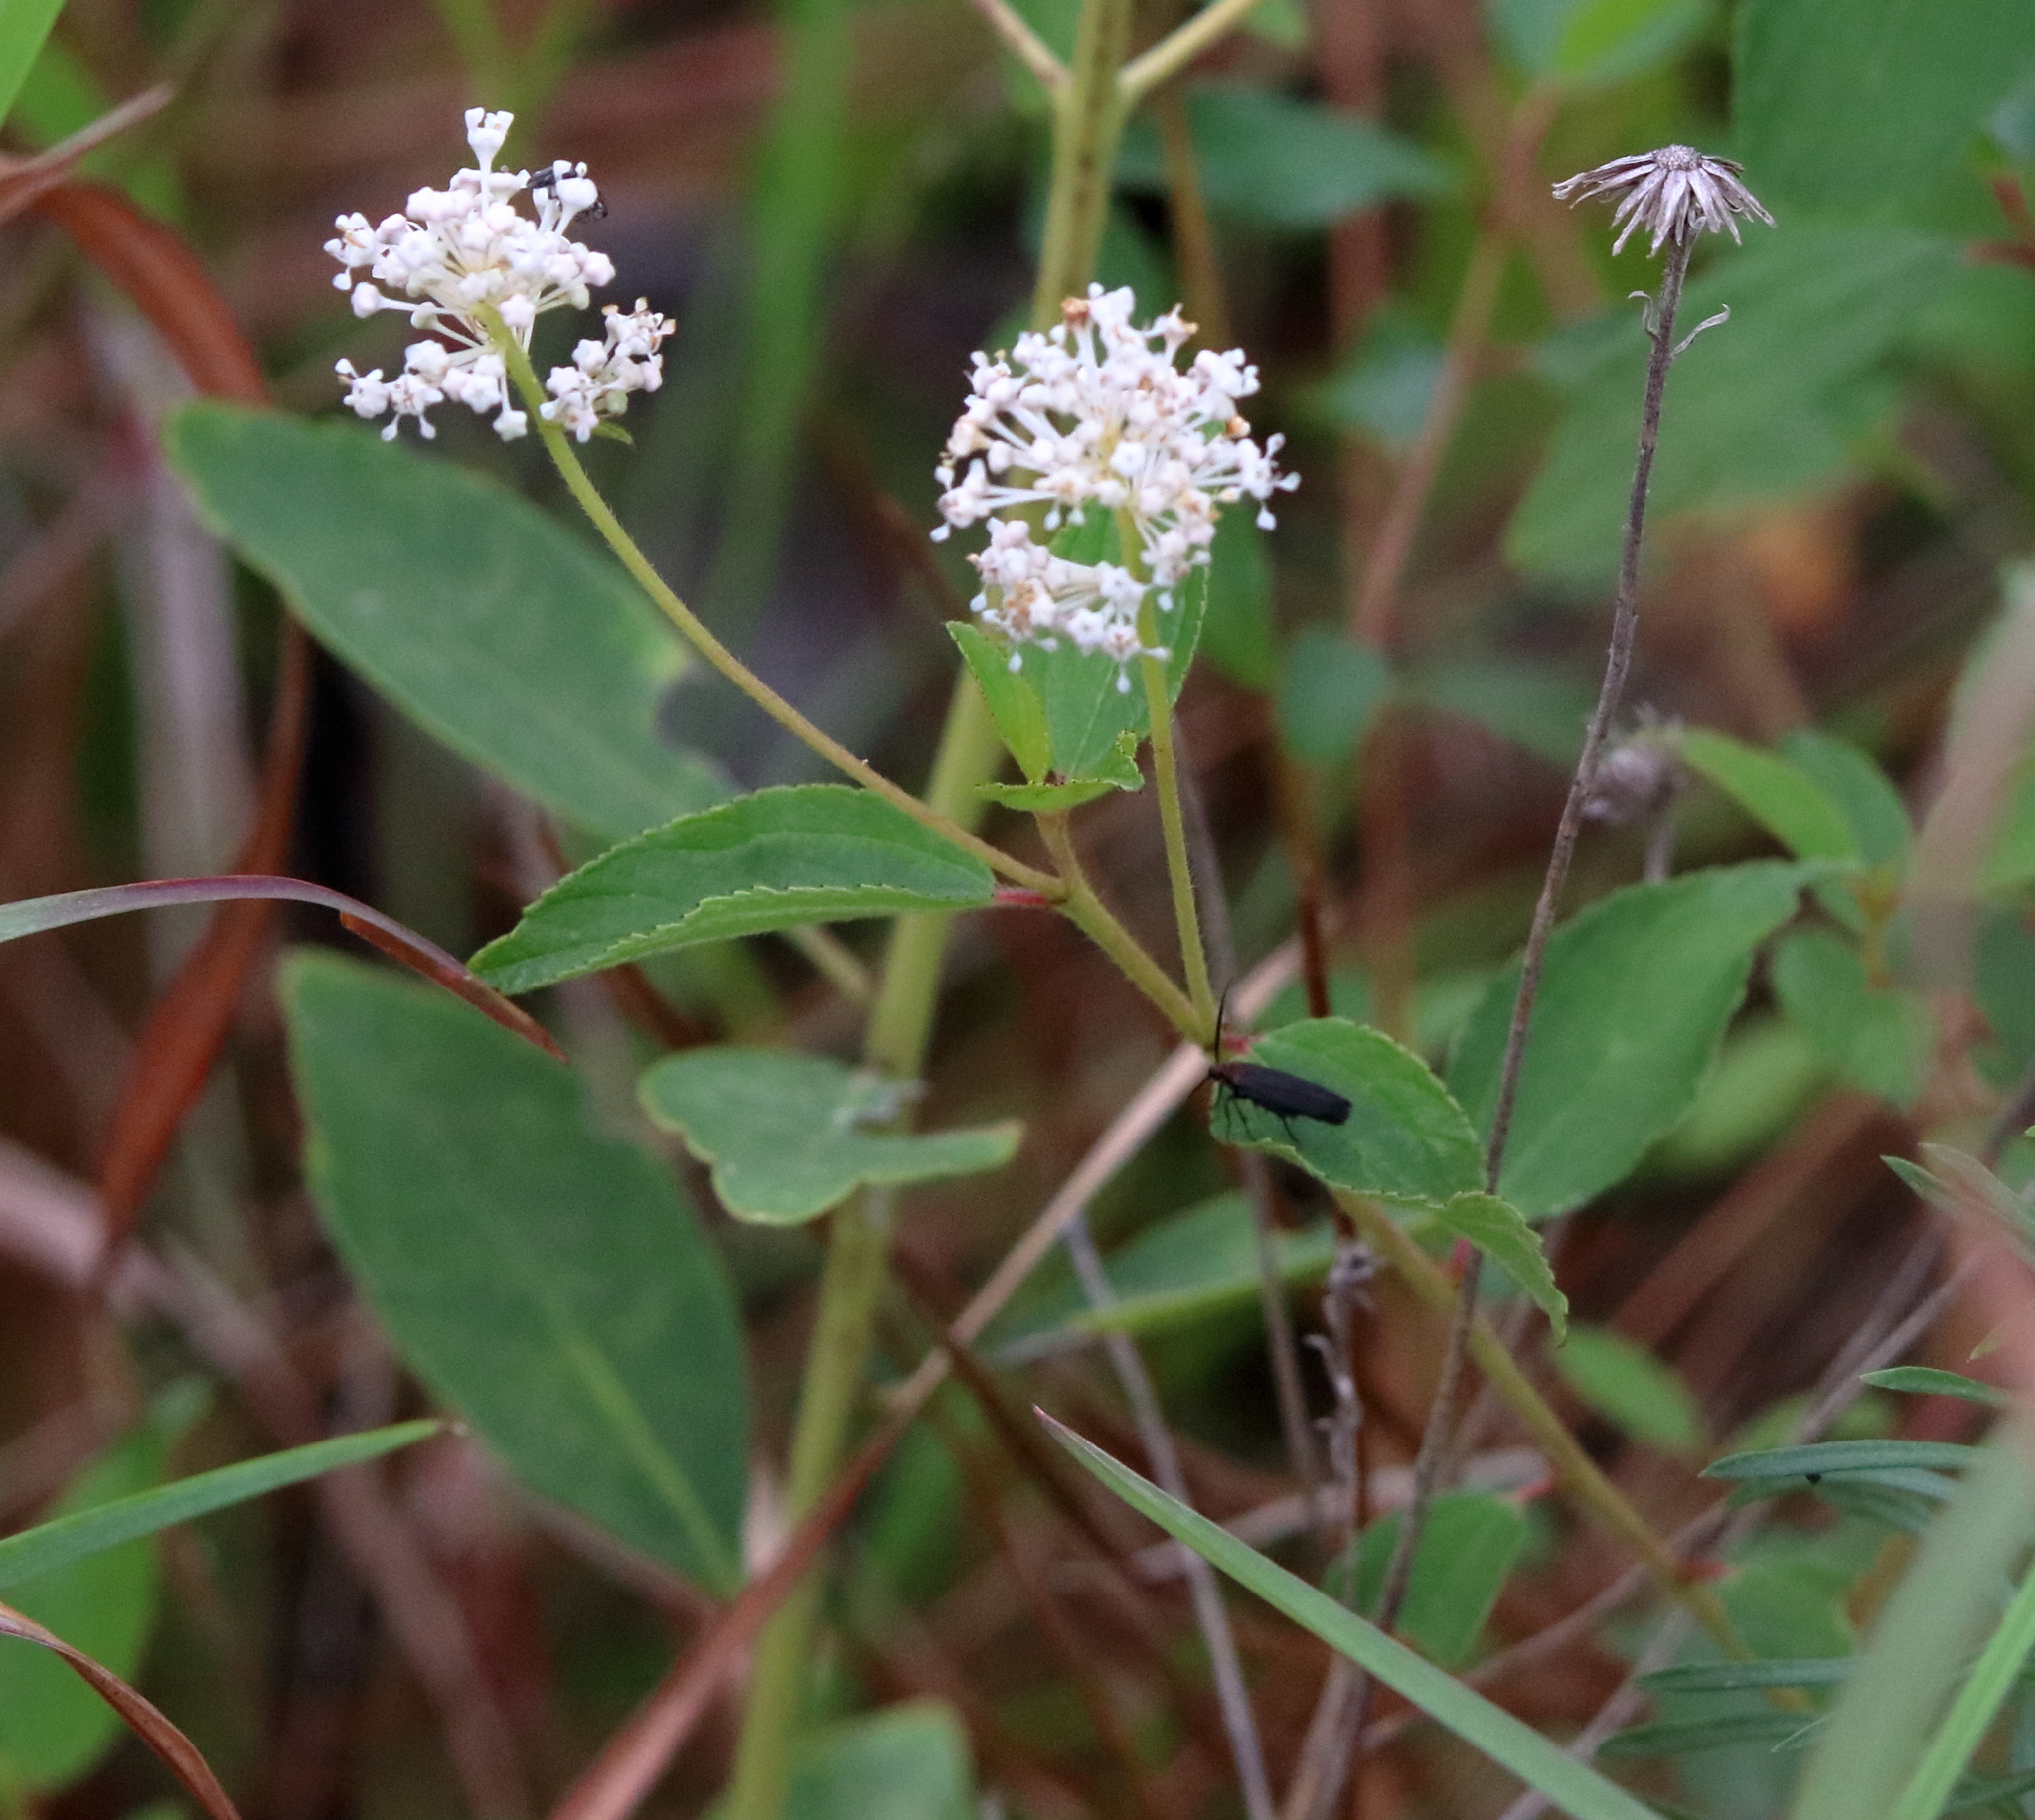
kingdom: Plantae
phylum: Tracheophyta
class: Magnoliopsida
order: Rosales
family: Rhamnaceae
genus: Ceanothus
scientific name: Ceanothus americanus
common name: Redroot
